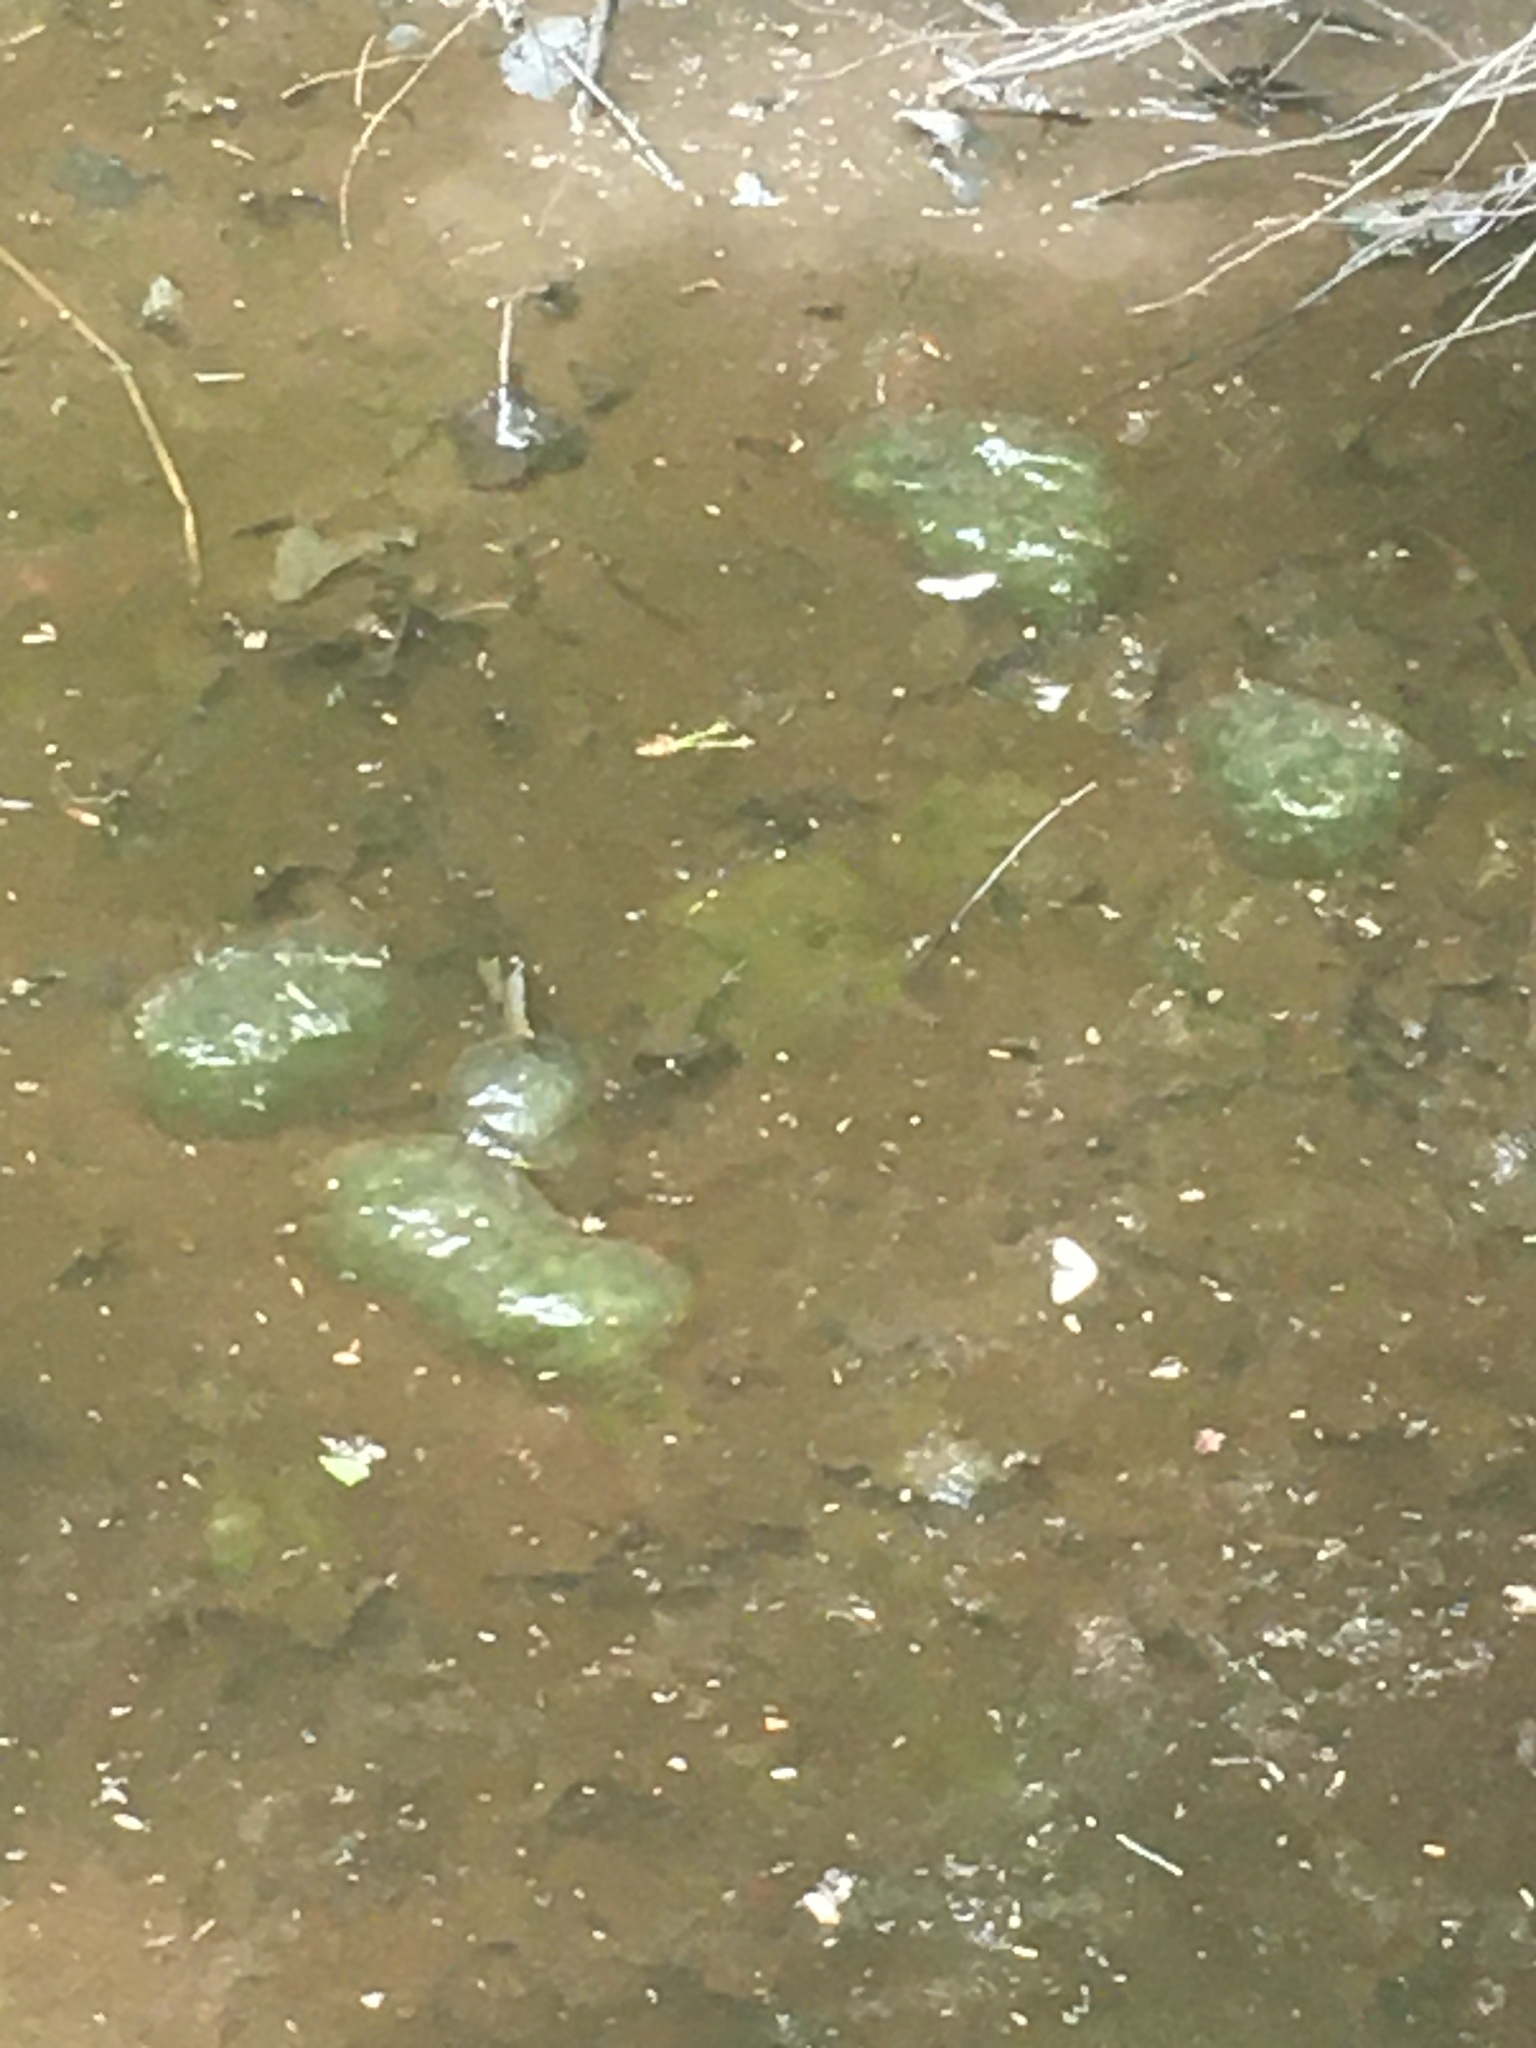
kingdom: Animalia
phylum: Chordata
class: Amphibia
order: Caudata
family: Ambystomatidae
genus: Ambystoma
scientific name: Ambystoma maculatum
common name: Spotted salamander
